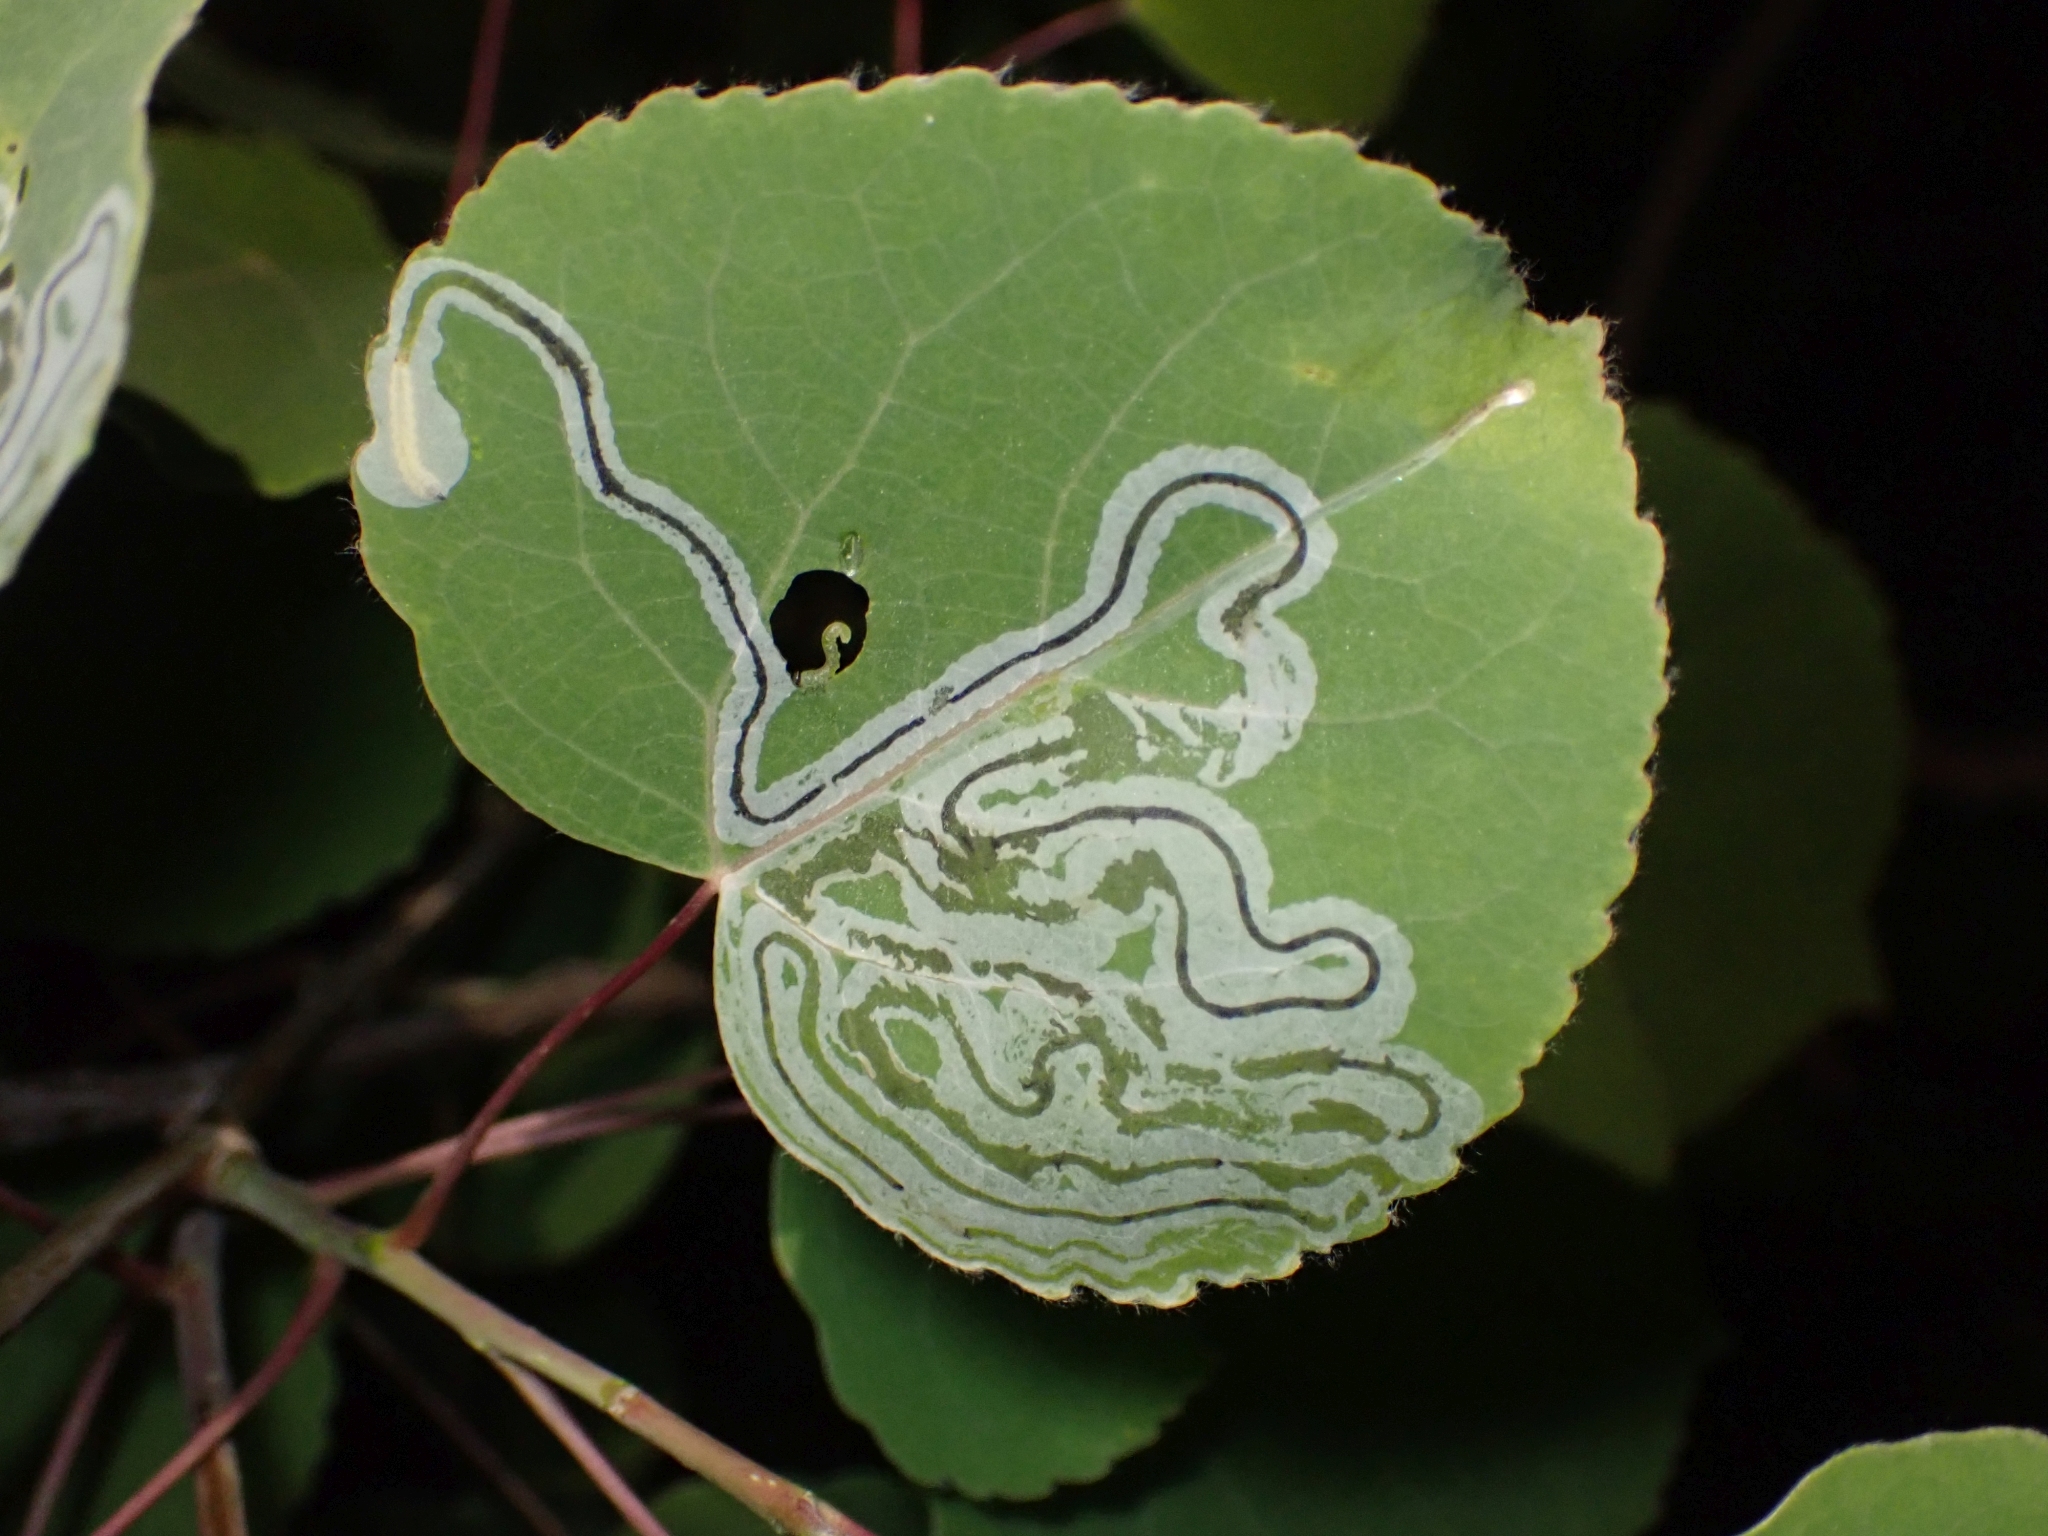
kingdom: Animalia
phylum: Arthropoda
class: Insecta
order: Lepidoptera
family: Gracillariidae
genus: Phyllocnistis
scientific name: Phyllocnistis populiella
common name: Aspen serpentine leafminer moth
